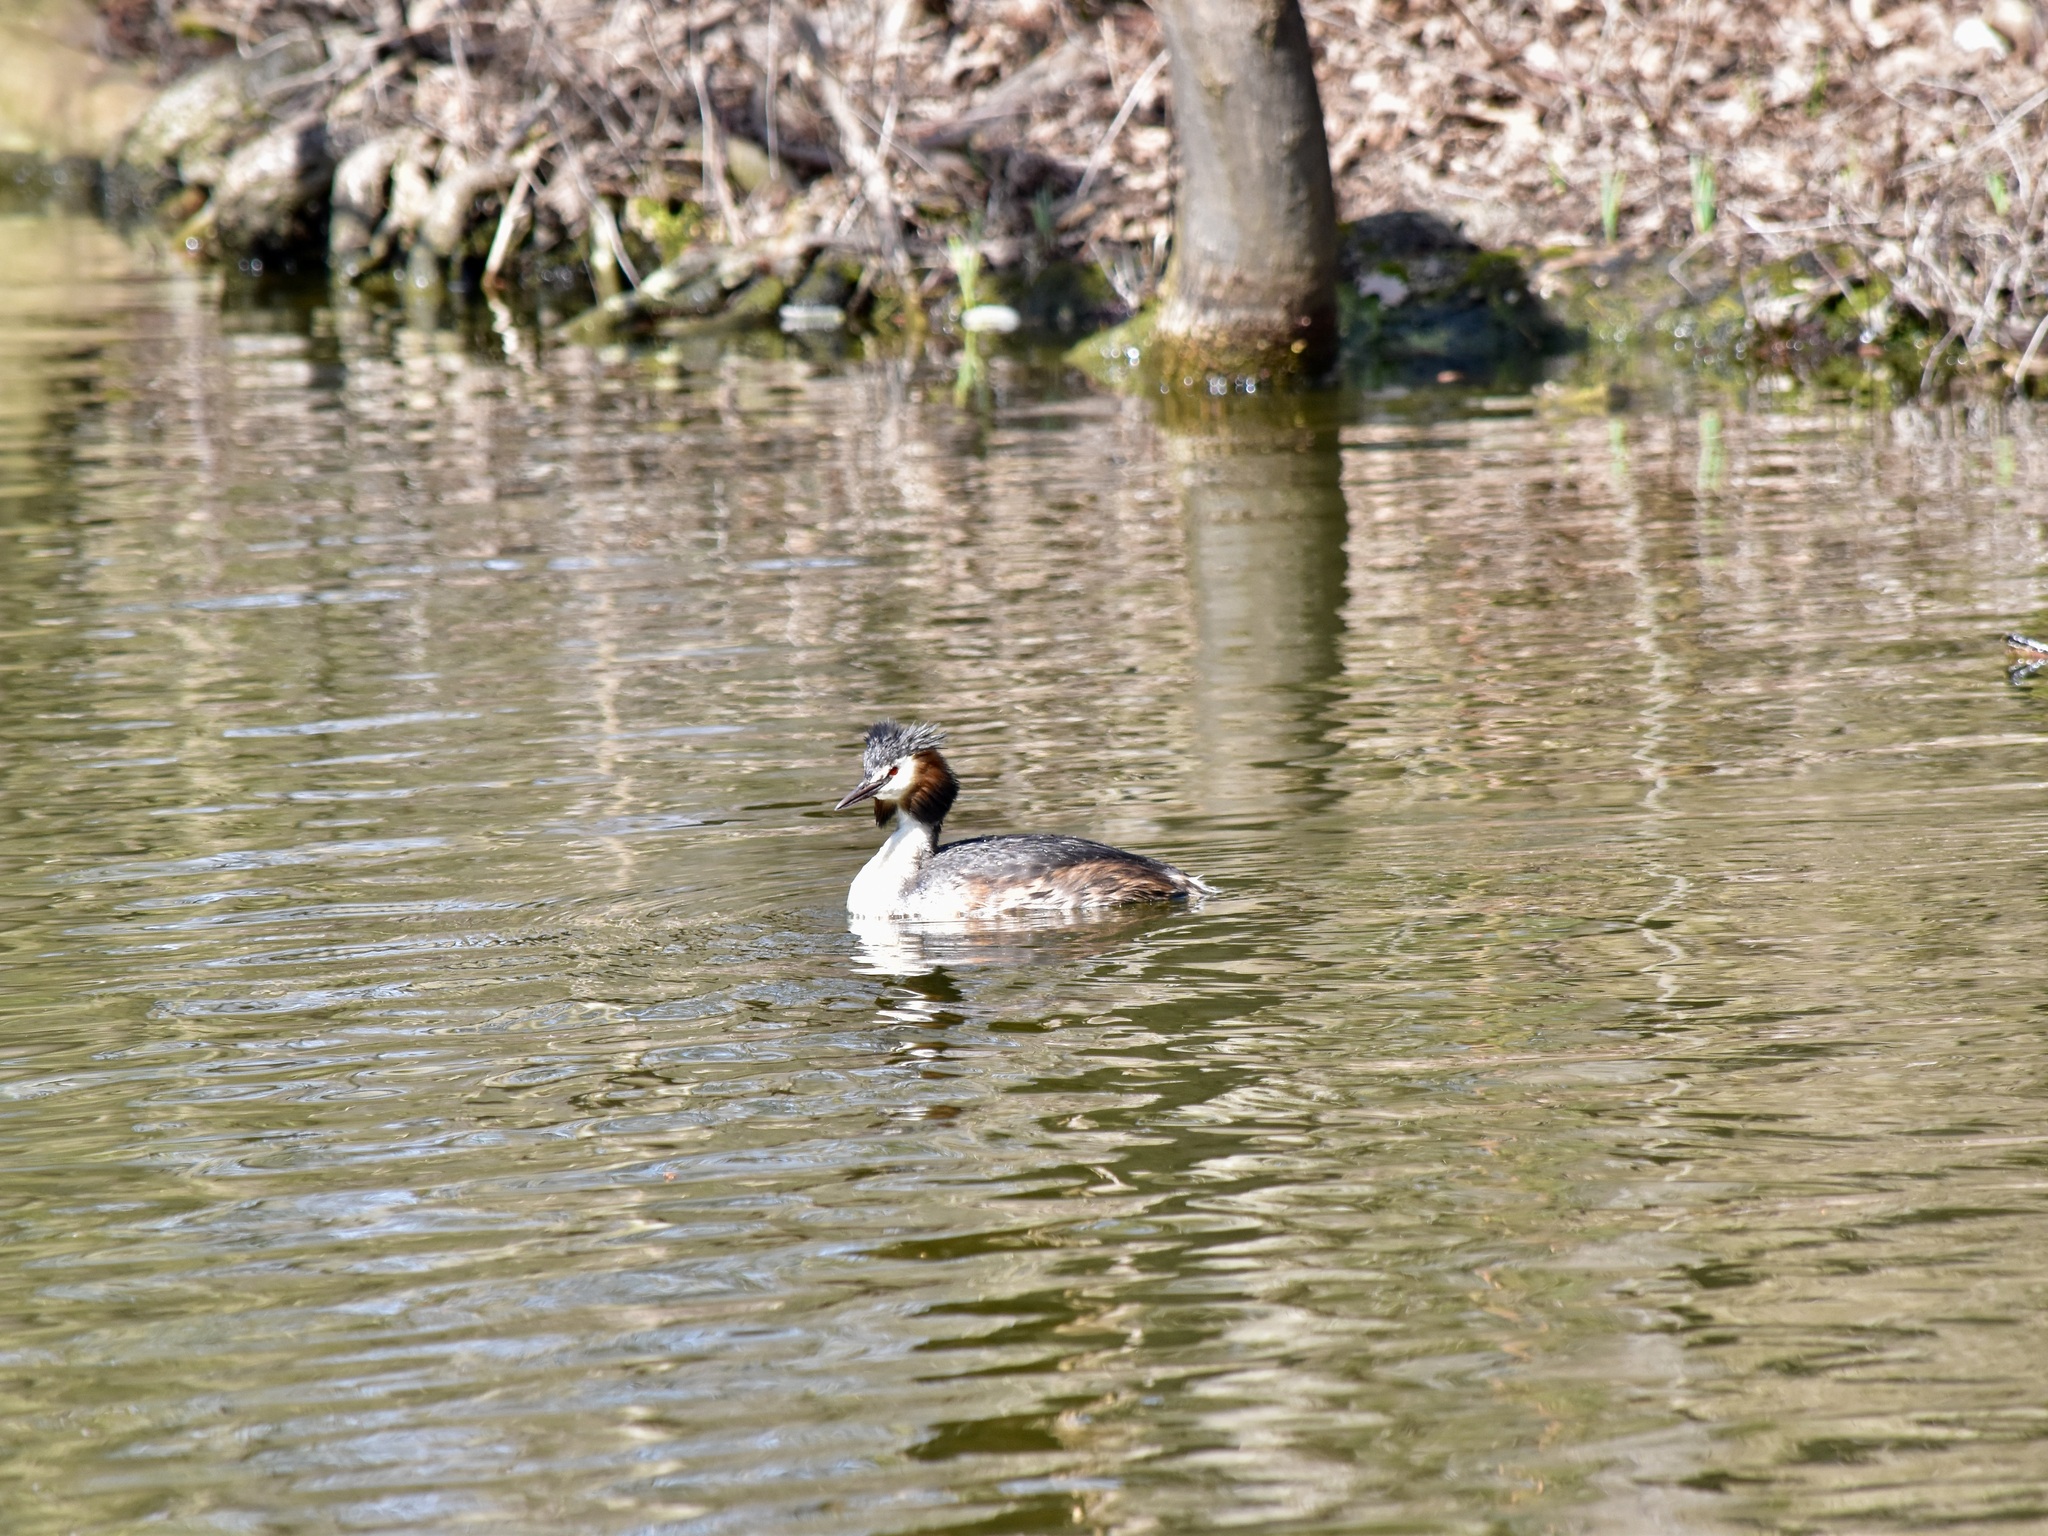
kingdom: Animalia
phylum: Chordata
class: Aves
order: Podicipediformes
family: Podicipedidae
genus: Podiceps
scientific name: Podiceps cristatus
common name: Great crested grebe
